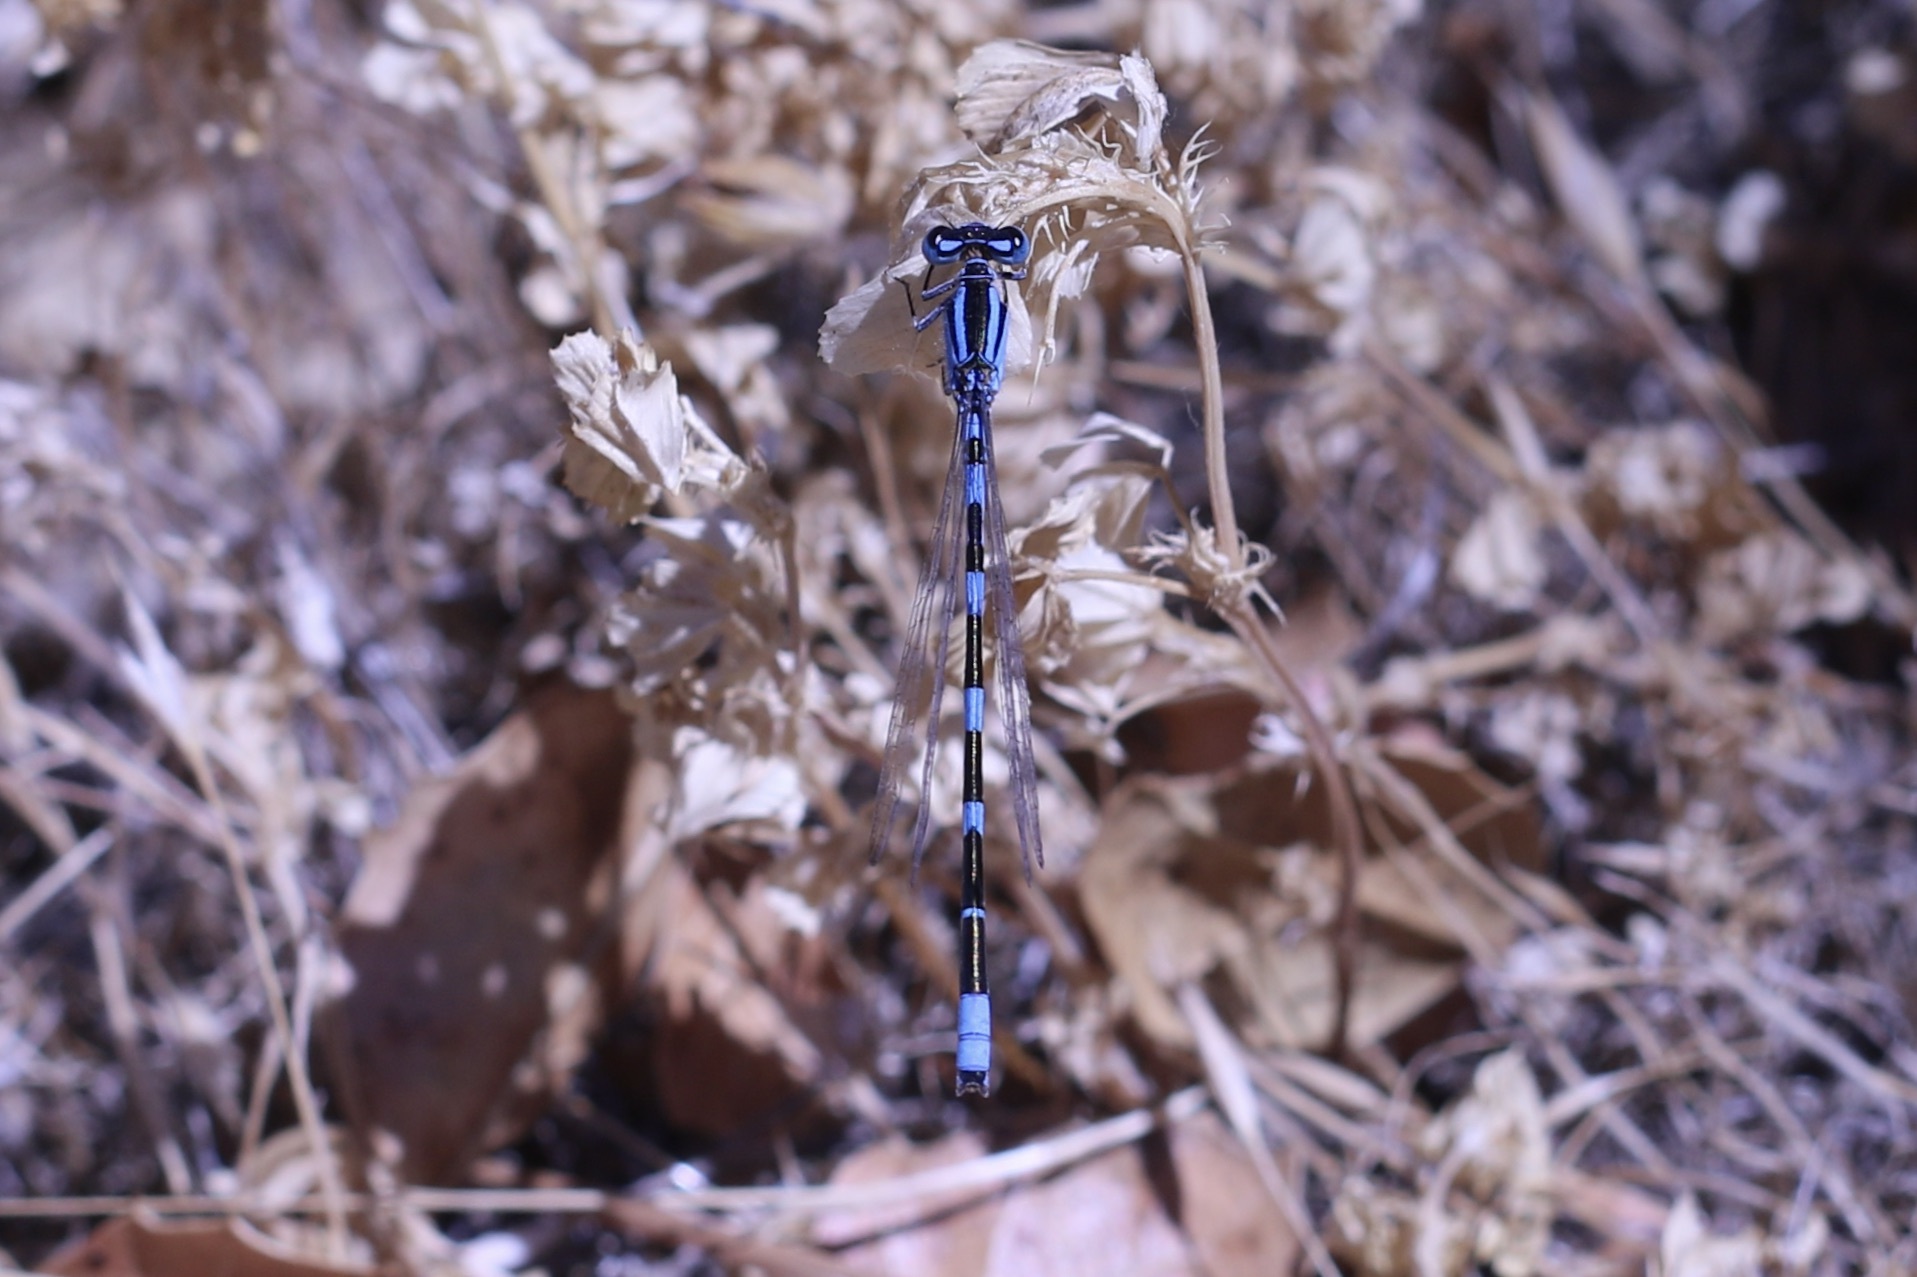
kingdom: Animalia
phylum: Arthropoda
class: Insecta
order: Odonata
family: Coenagrionidae
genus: Enallagma
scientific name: Enallagma carunculatum
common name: Tule bluet
